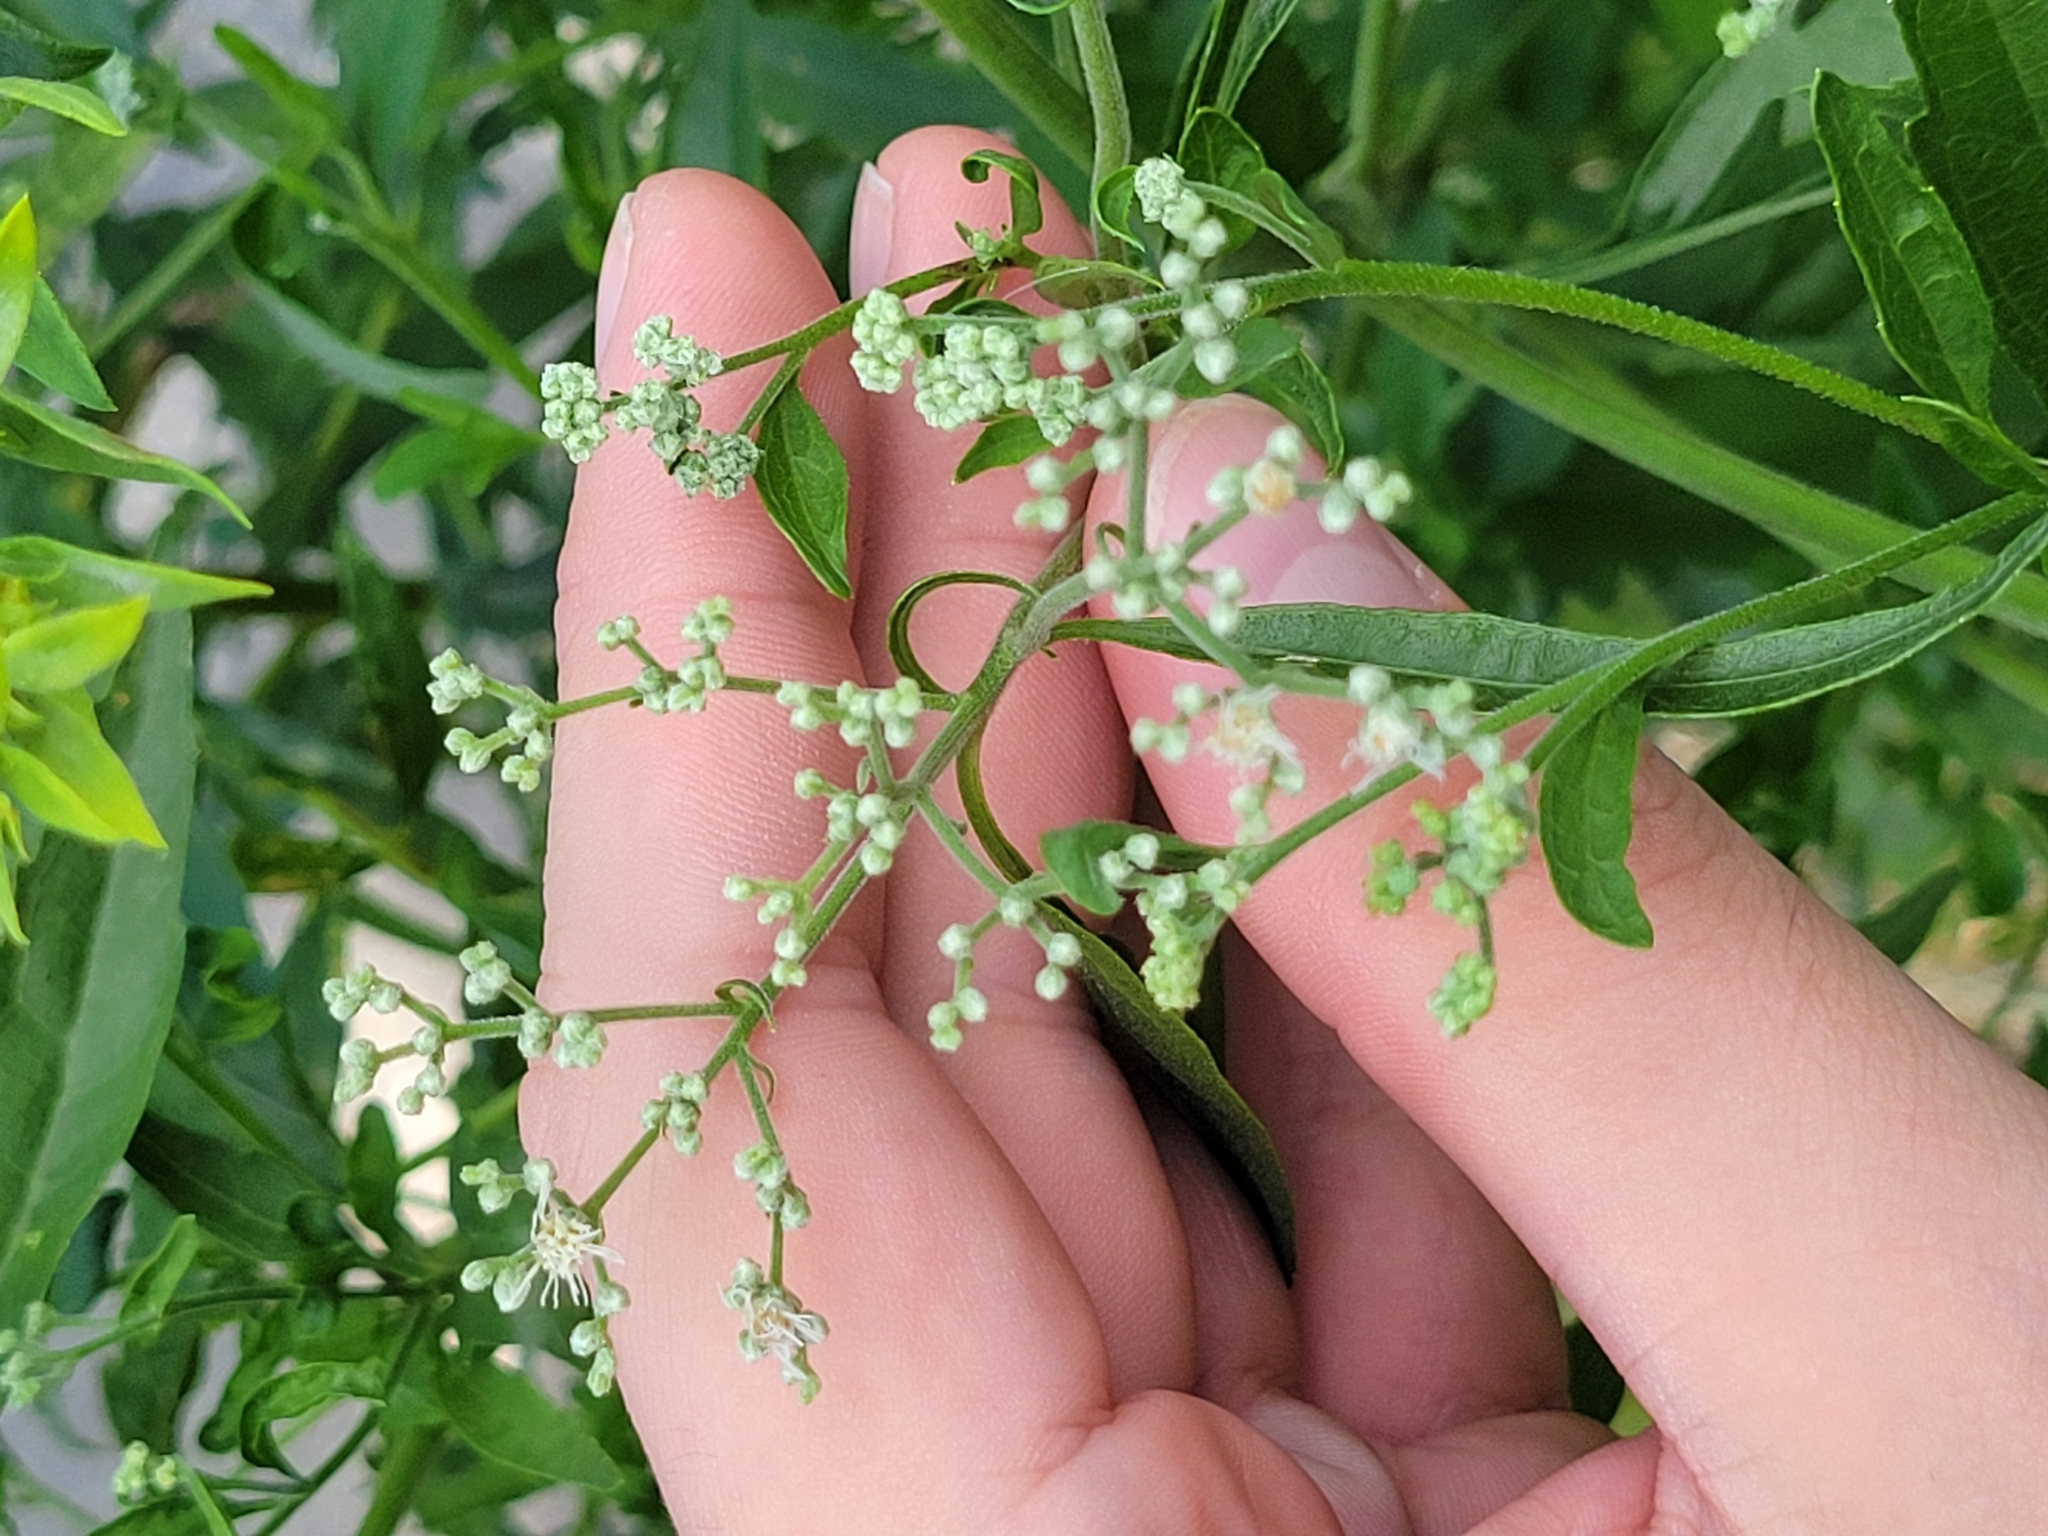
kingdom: Plantae
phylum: Tracheophyta
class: Magnoliopsida
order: Asterales
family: Asteraceae
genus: Eupatorium
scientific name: Eupatorium serotinum
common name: Late boneset
